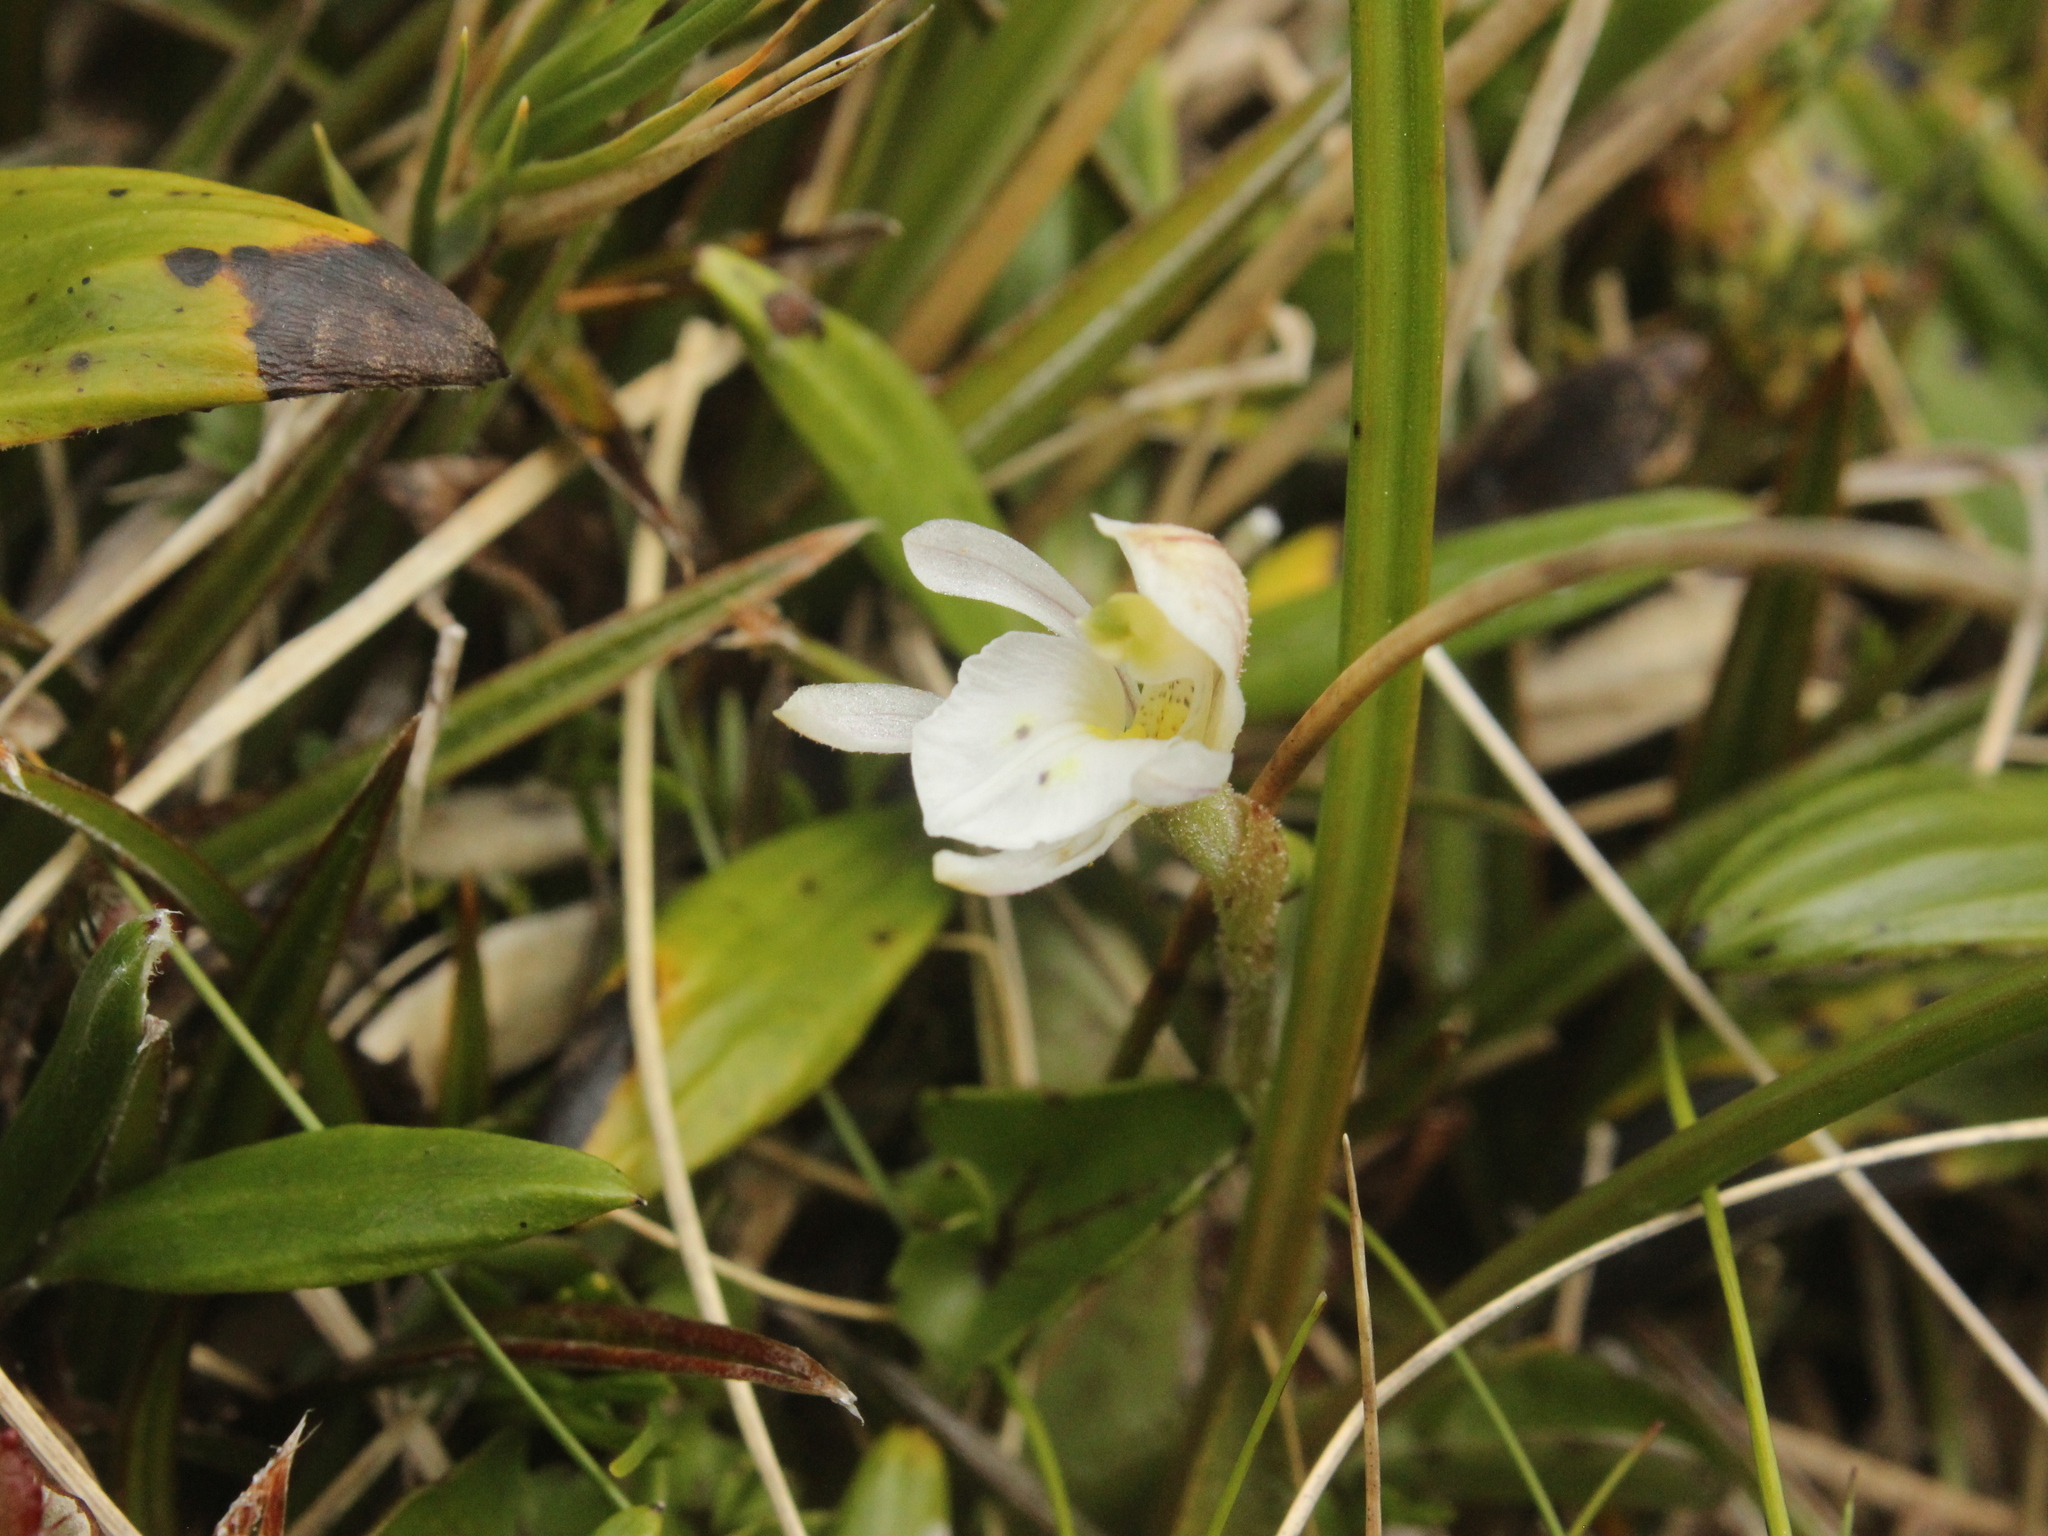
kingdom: Plantae
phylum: Tracheophyta
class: Liliopsida
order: Asparagales
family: Orchidaceae
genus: Aporostylis
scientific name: Aporostylis bifolia
